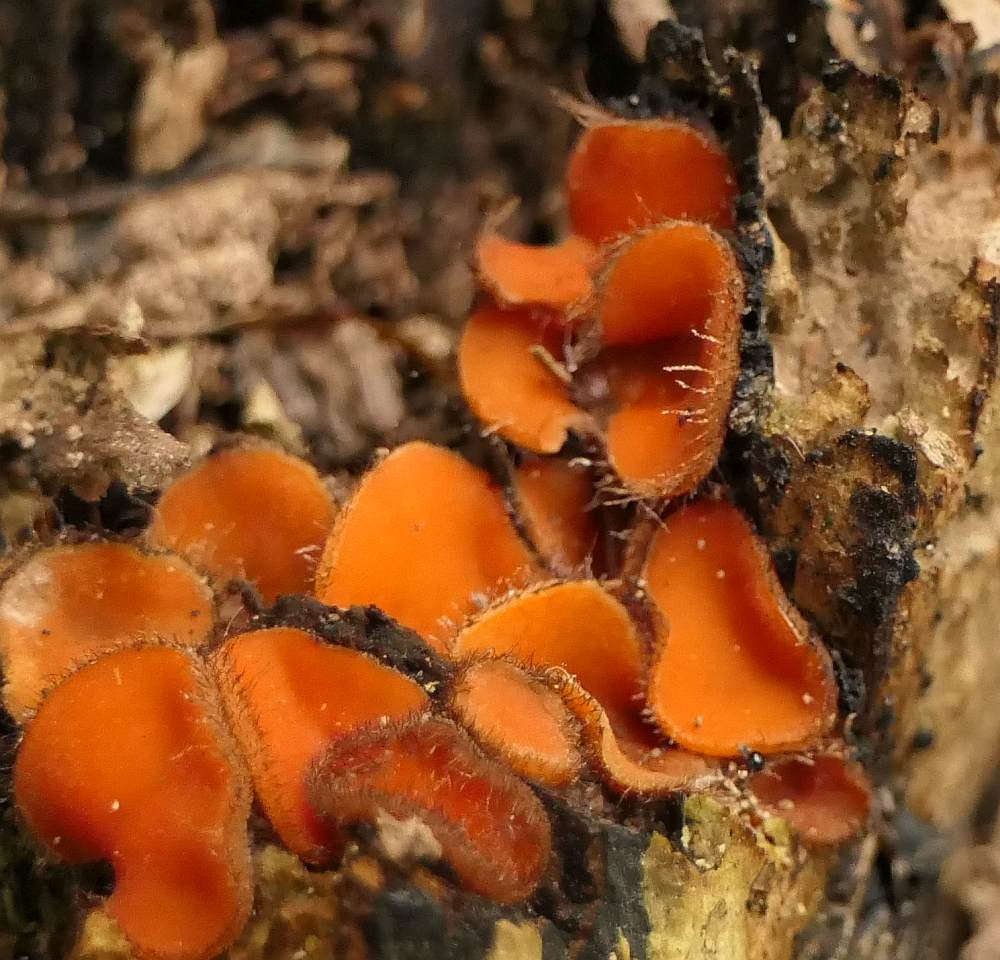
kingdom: Fungi
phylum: Ascomycota
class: Pezizomycetes
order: Pezizales
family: Pyronemataceae
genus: Scutellinia
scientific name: Scutellinia
